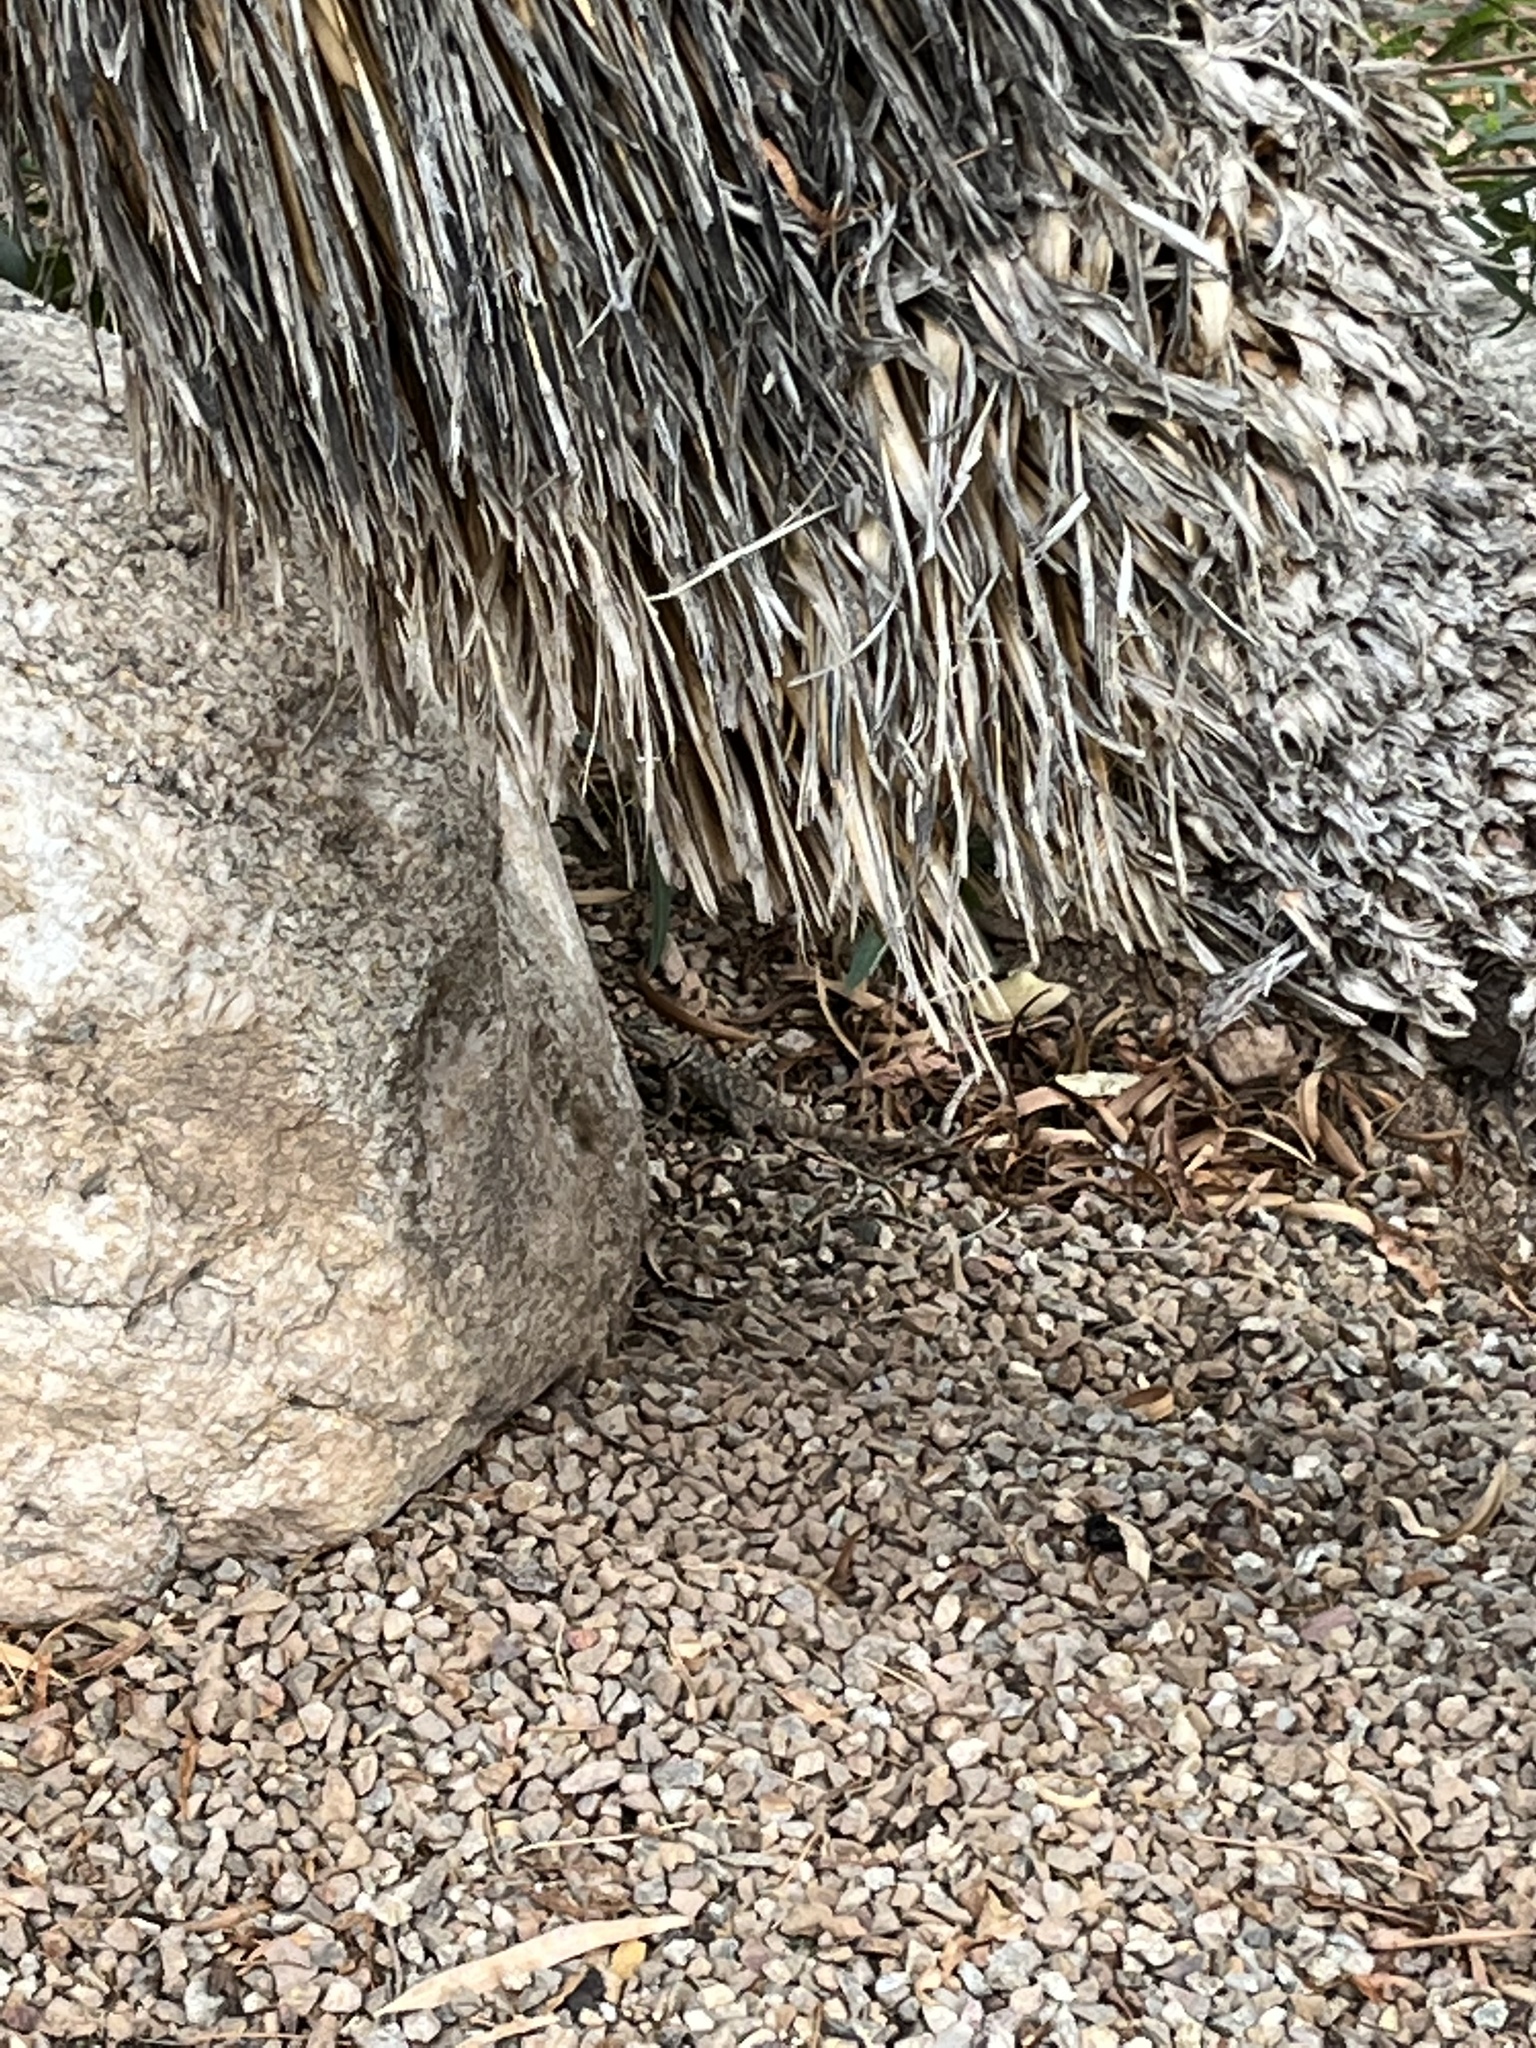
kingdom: Animalia
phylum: Chordata
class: Squamata
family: Phrynosomatidae
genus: Sceloporus
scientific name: Sceloporus magister
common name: Desert spiny lizard
